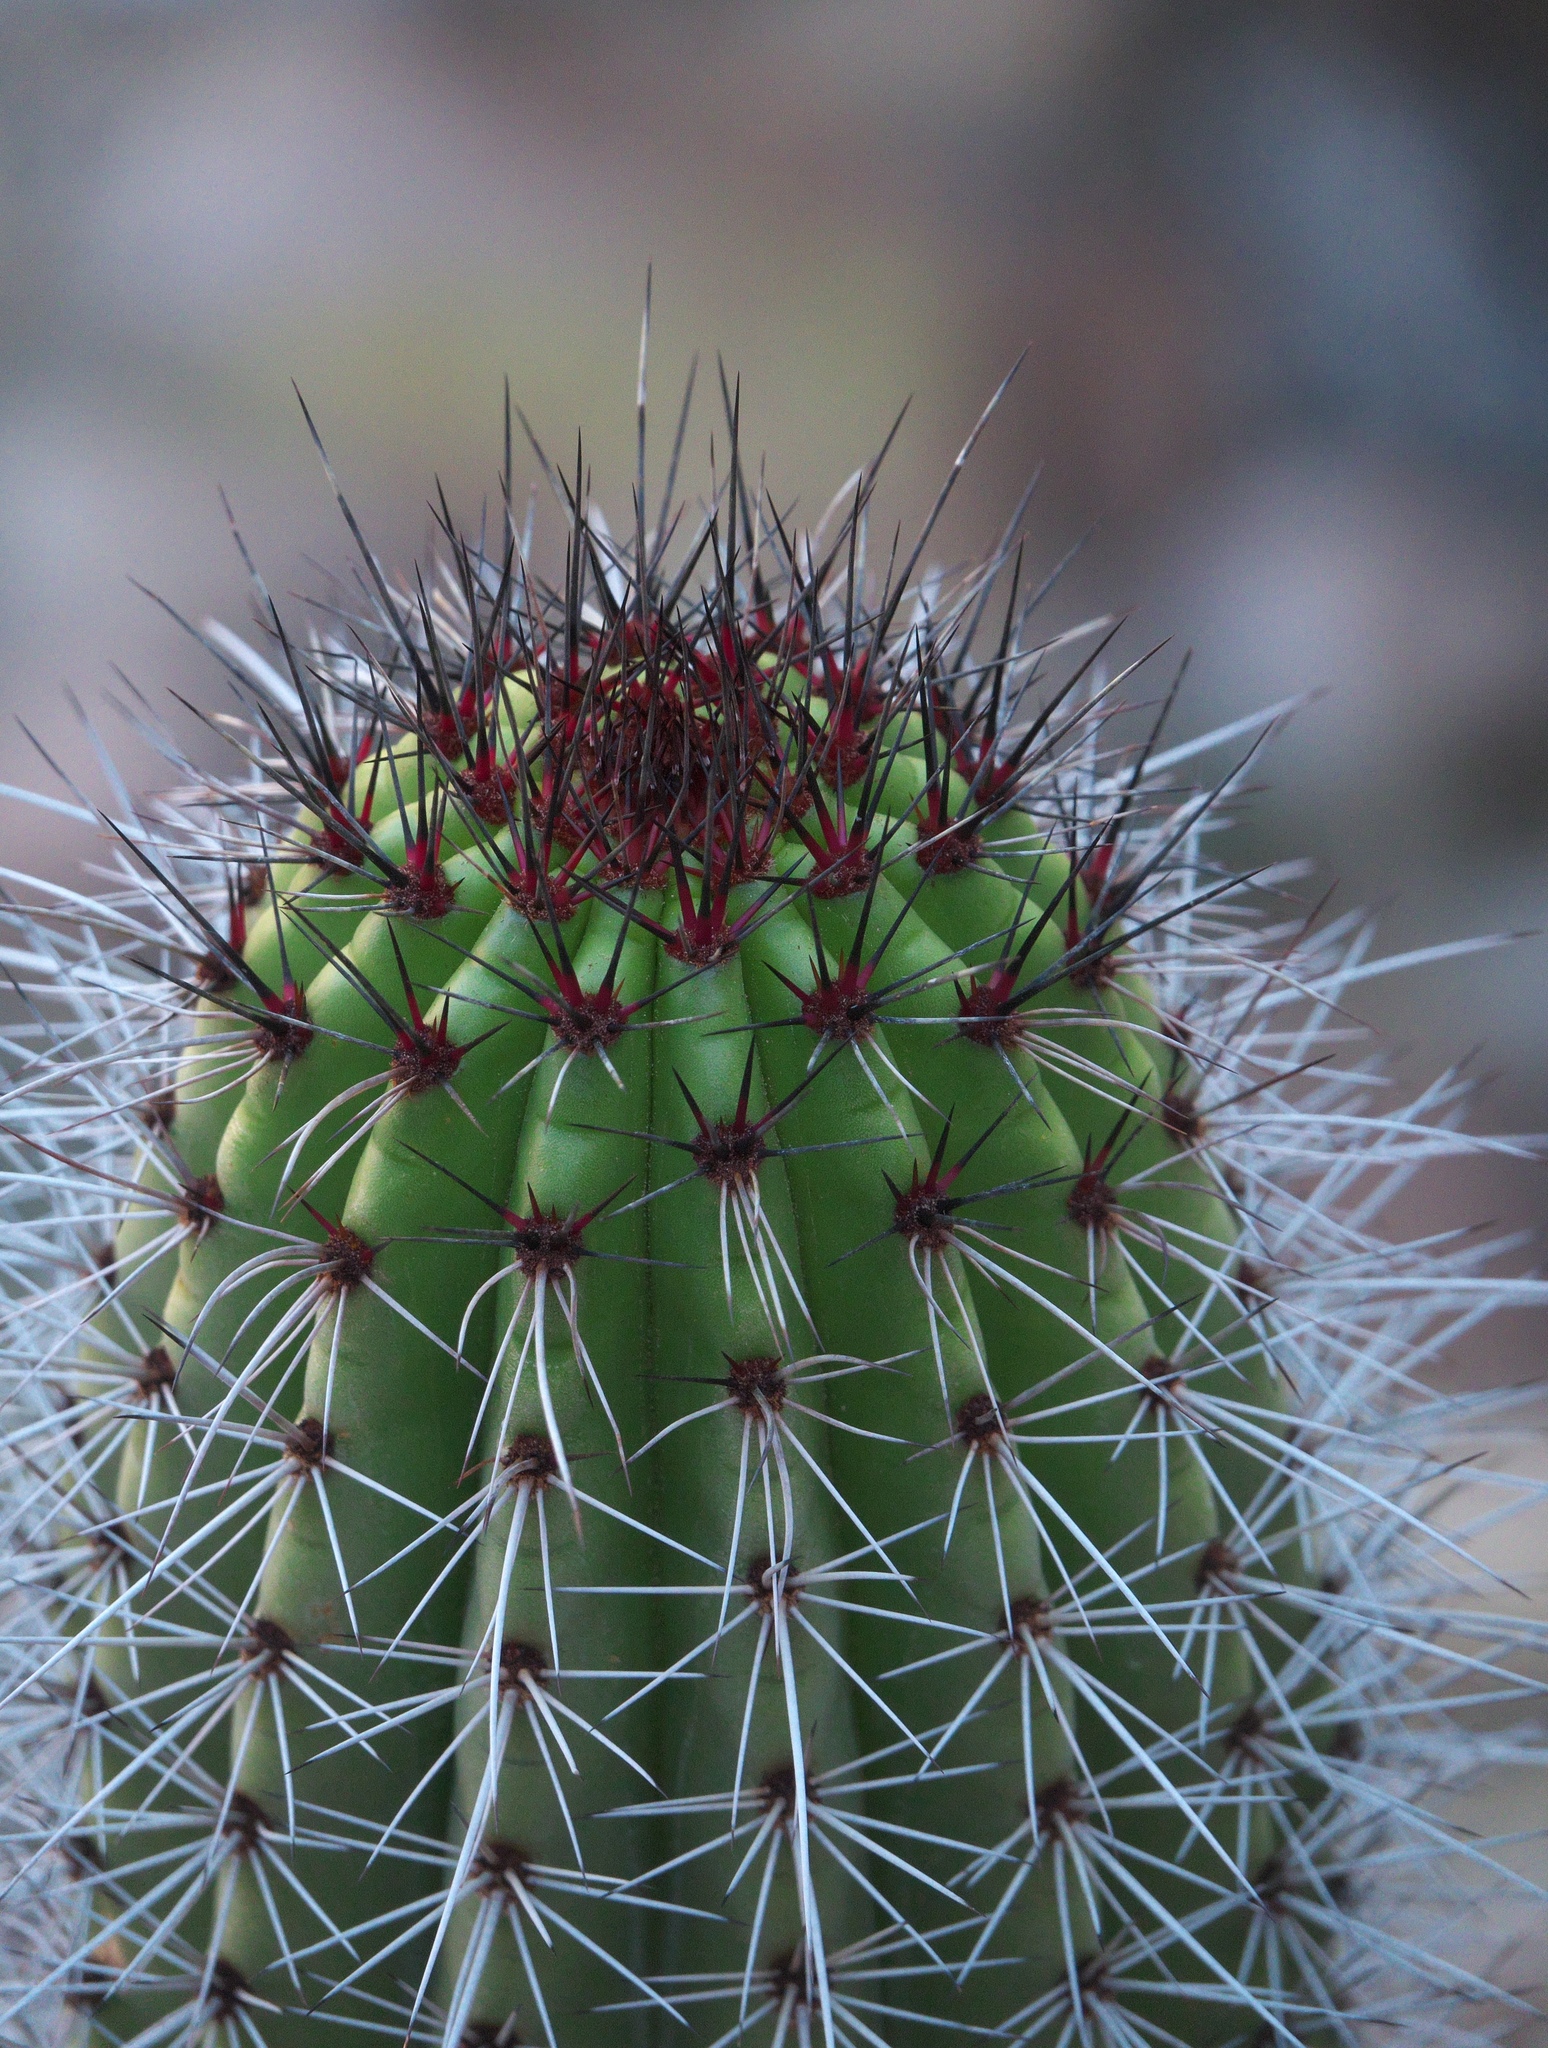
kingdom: Plantae
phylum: Tracheophyta
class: Magnoliopsida
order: Caryophyllales
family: Cactaceae
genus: Stenocereus
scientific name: Stenocereus thurberi
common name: Organ pipe cactus
